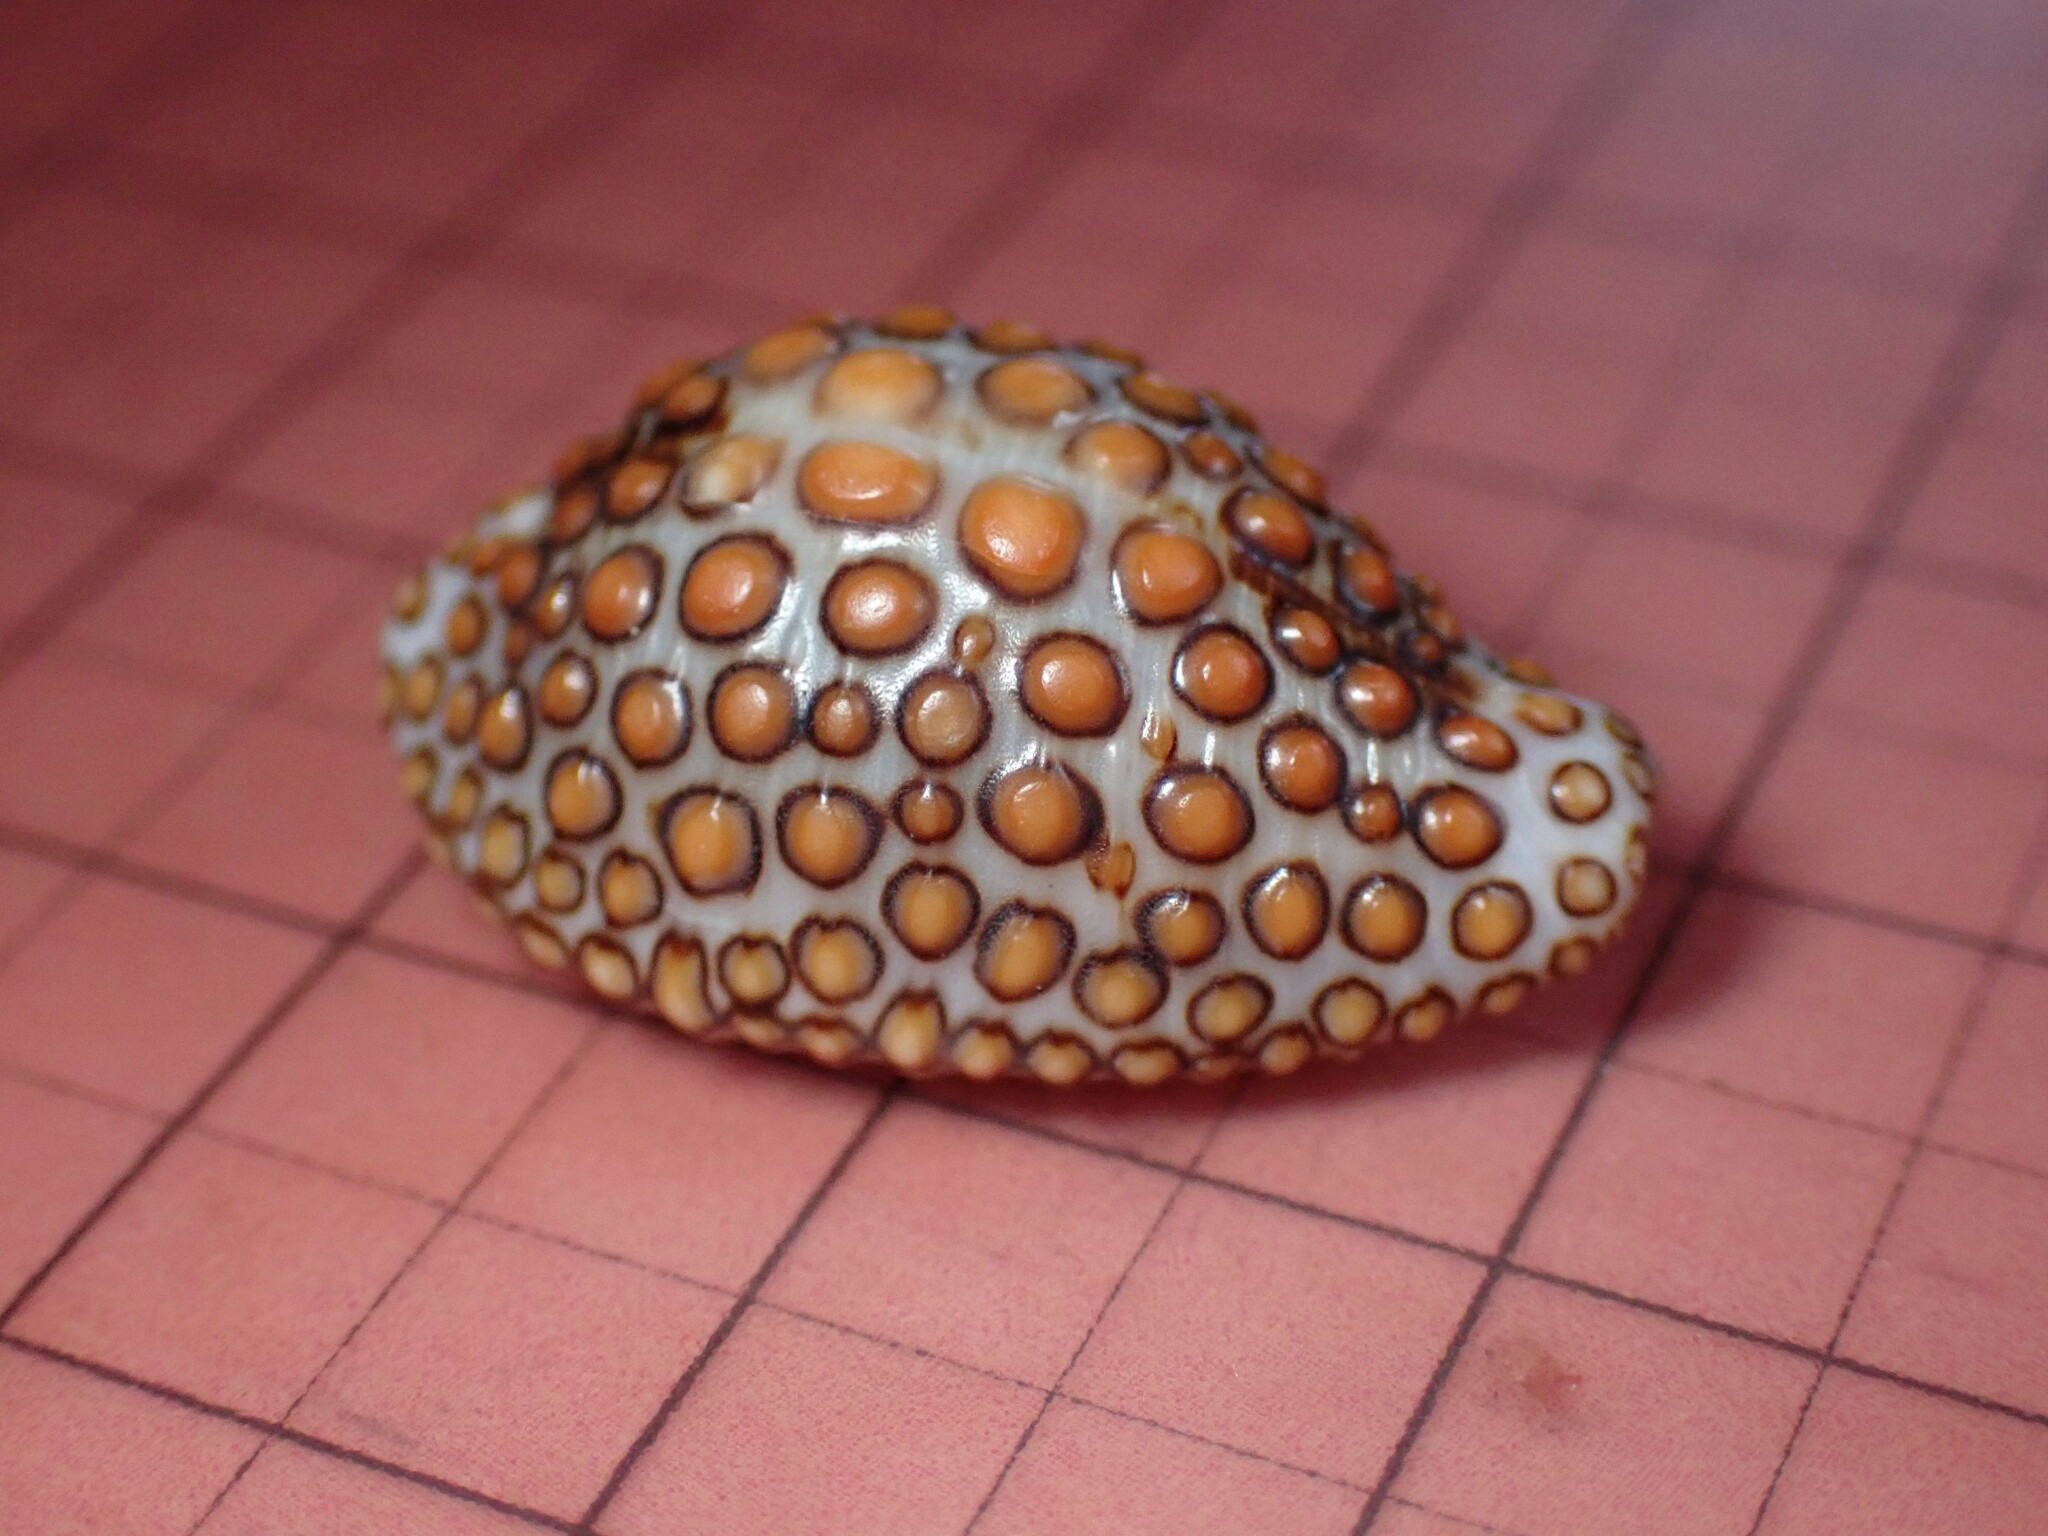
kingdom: Animalia
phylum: Mollusca
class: Gastropoda
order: Littorinimorpha
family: Pediculariidae
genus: Jenneria
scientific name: Jenneria pustulata
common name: Pustuled cowrie
